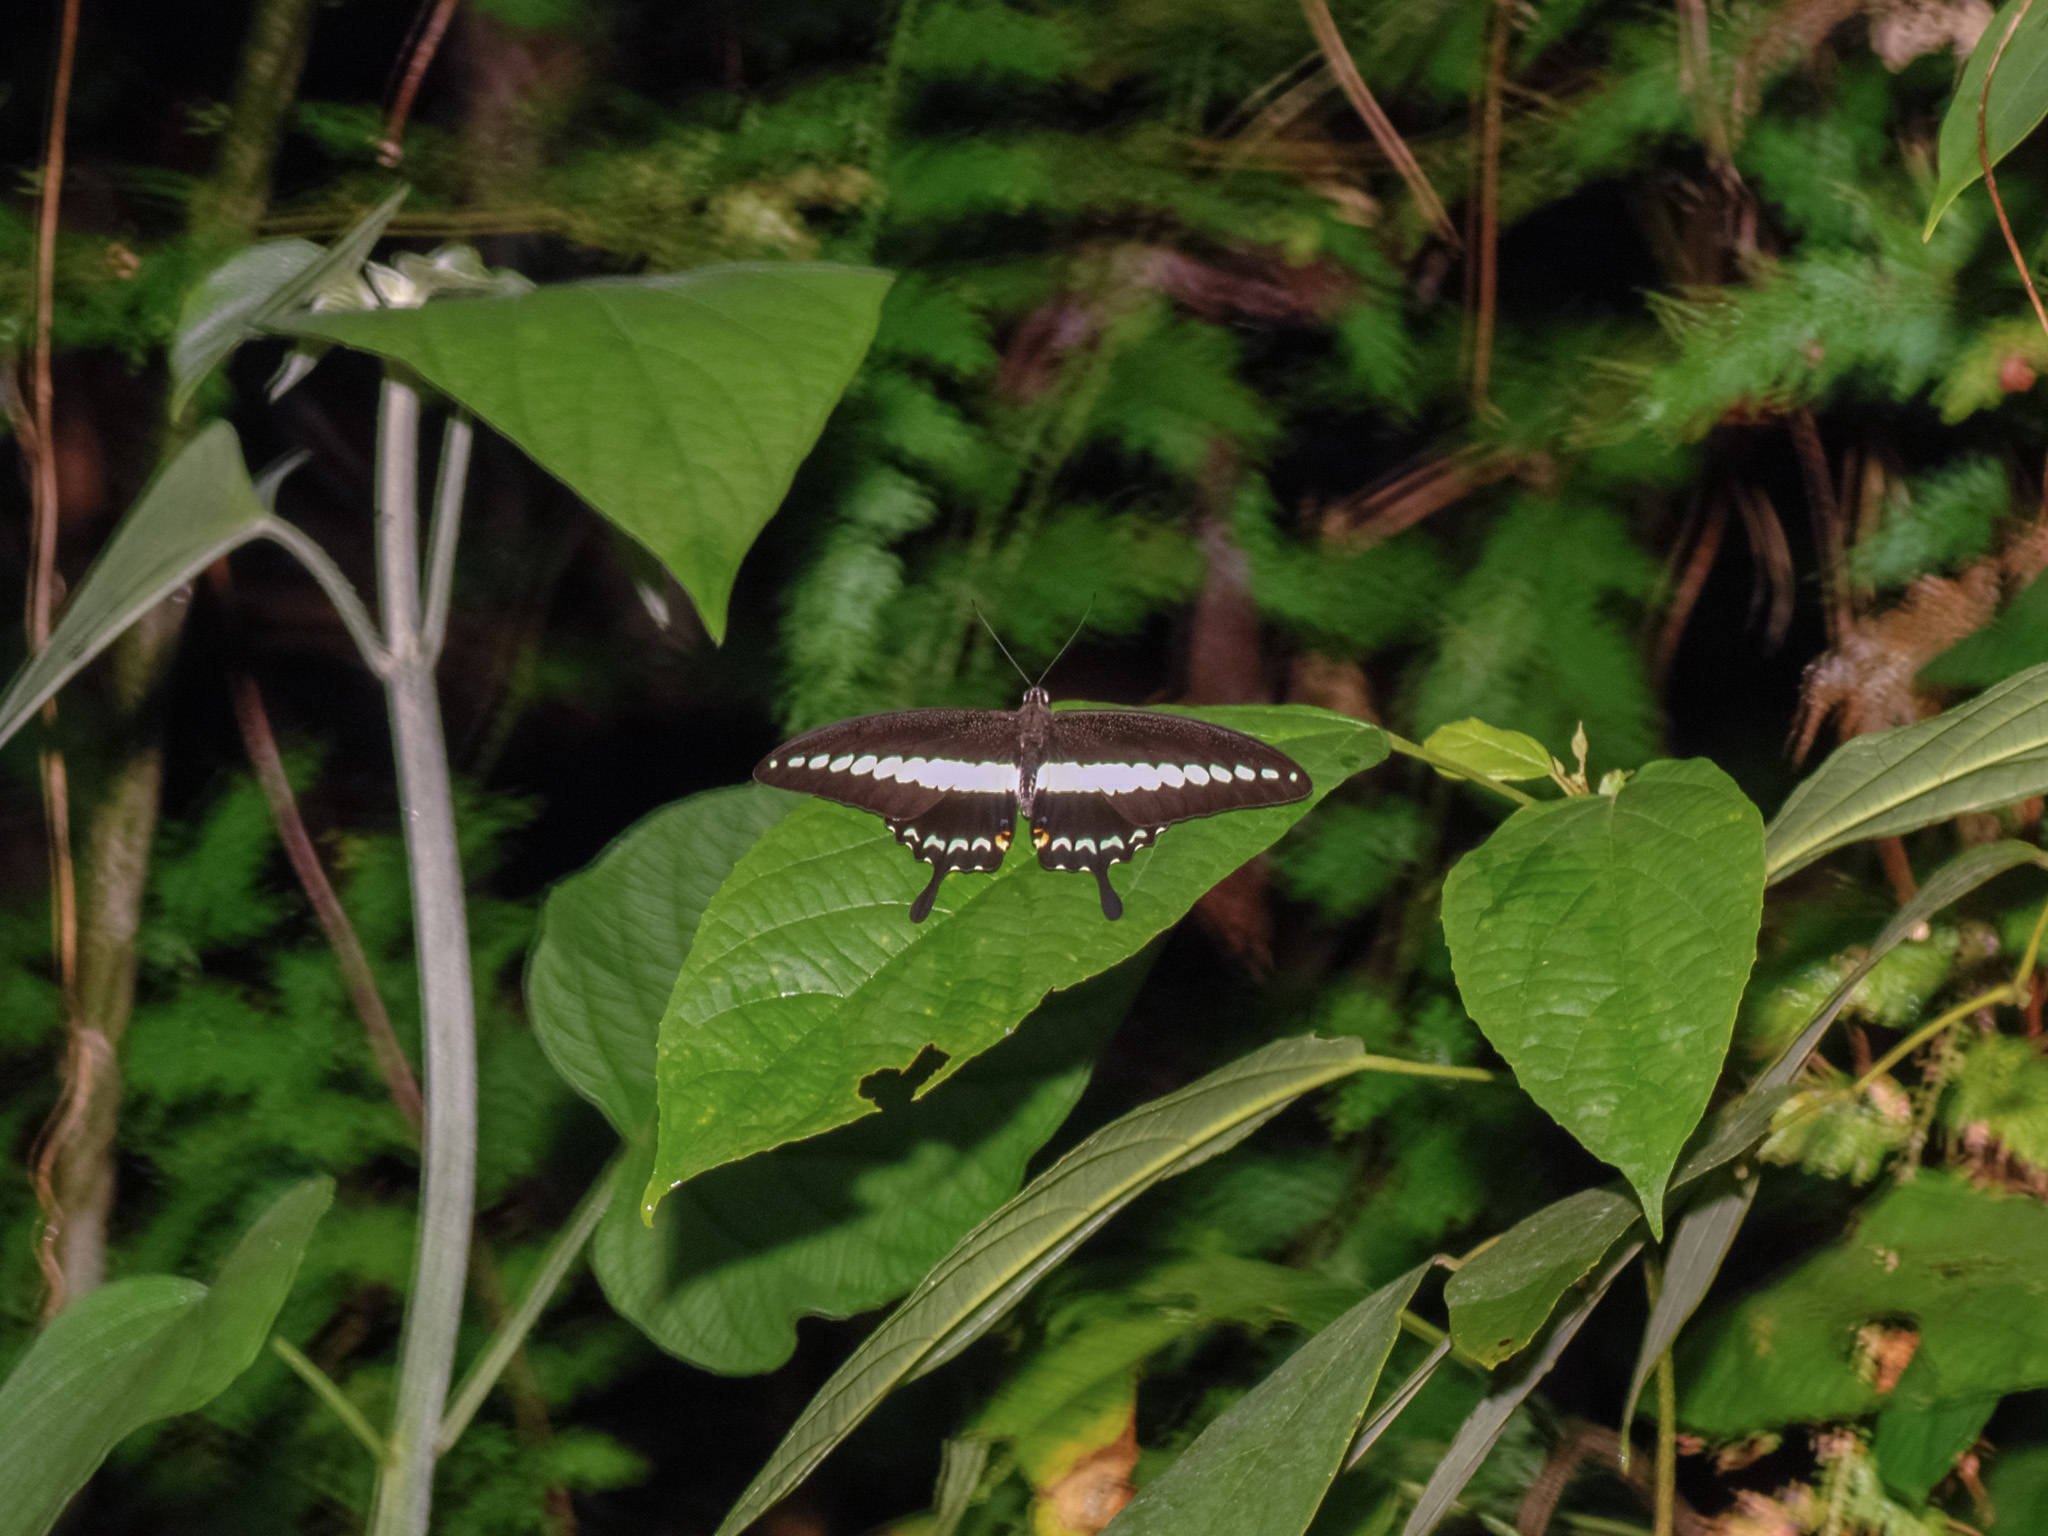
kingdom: Animalia
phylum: Arthropoda
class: Insecta
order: Lepidoptera
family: Papilionidae
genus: Papilio
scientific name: Papilio demolion
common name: Banded swallowtail
